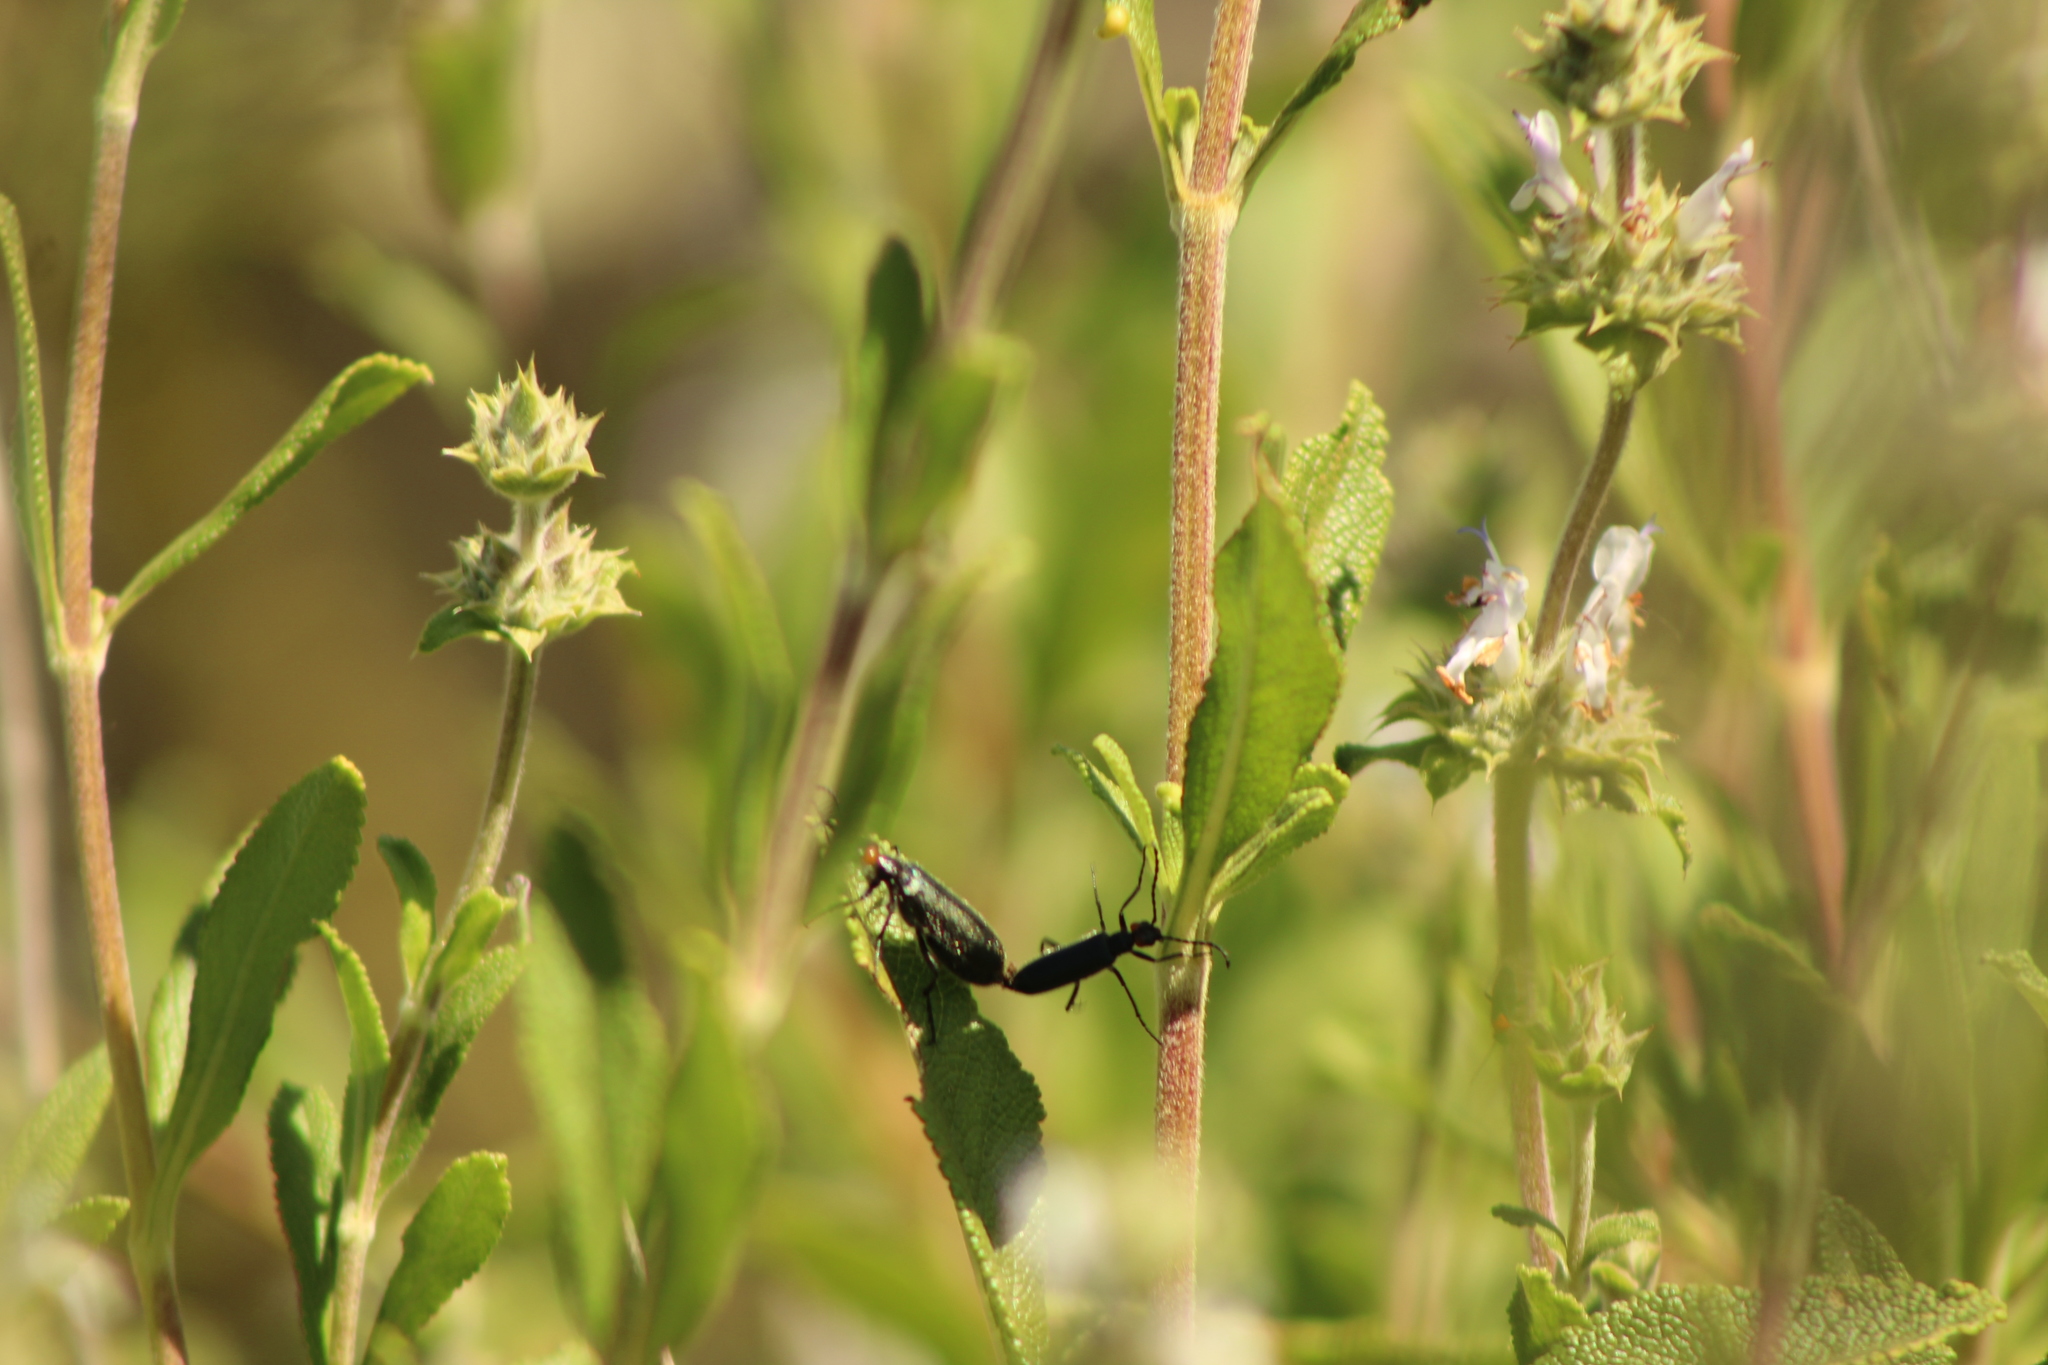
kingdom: Animalia
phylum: Arthropoda
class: Insecta
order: Coleoptera
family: Meloidae
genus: Lytta
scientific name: Lytta auriculata
